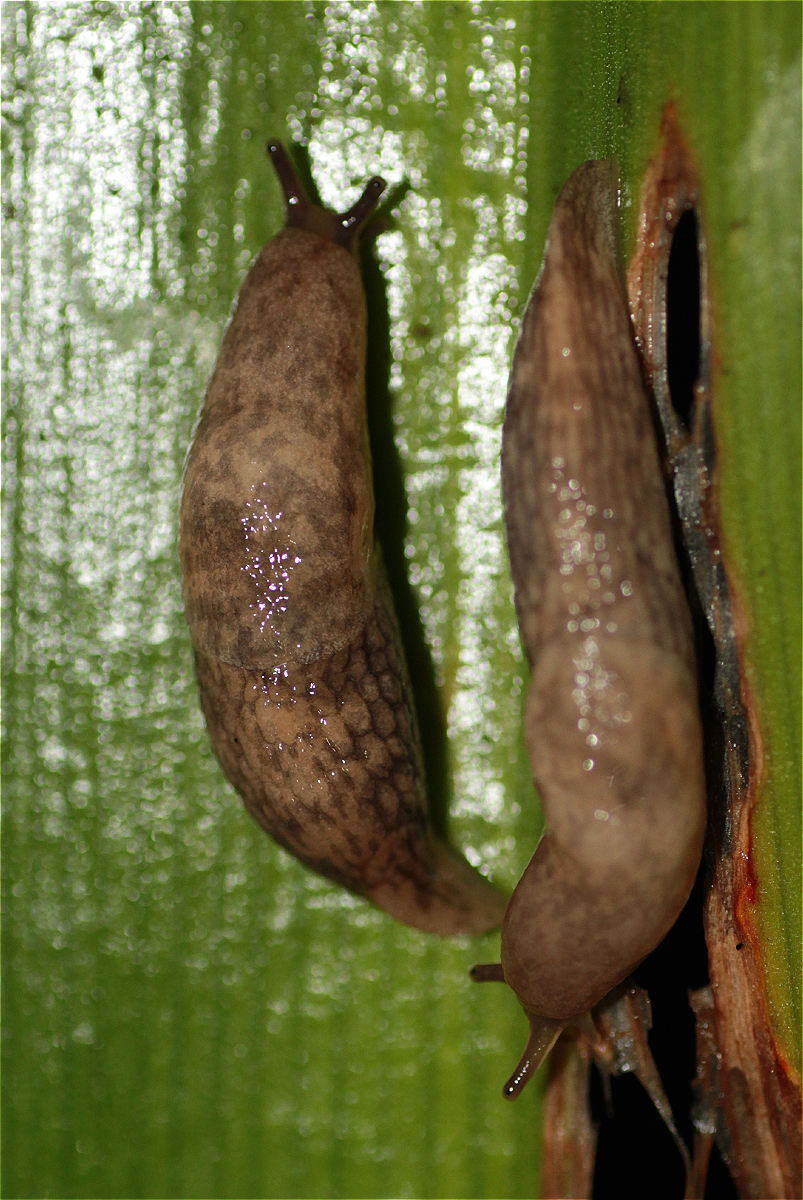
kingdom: Animalia
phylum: Mollusca
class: Gastropoda
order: Stylommatophora
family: Agriolimacidae
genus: Deroceras
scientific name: Deroceras reticulatum
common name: Gray field slug
